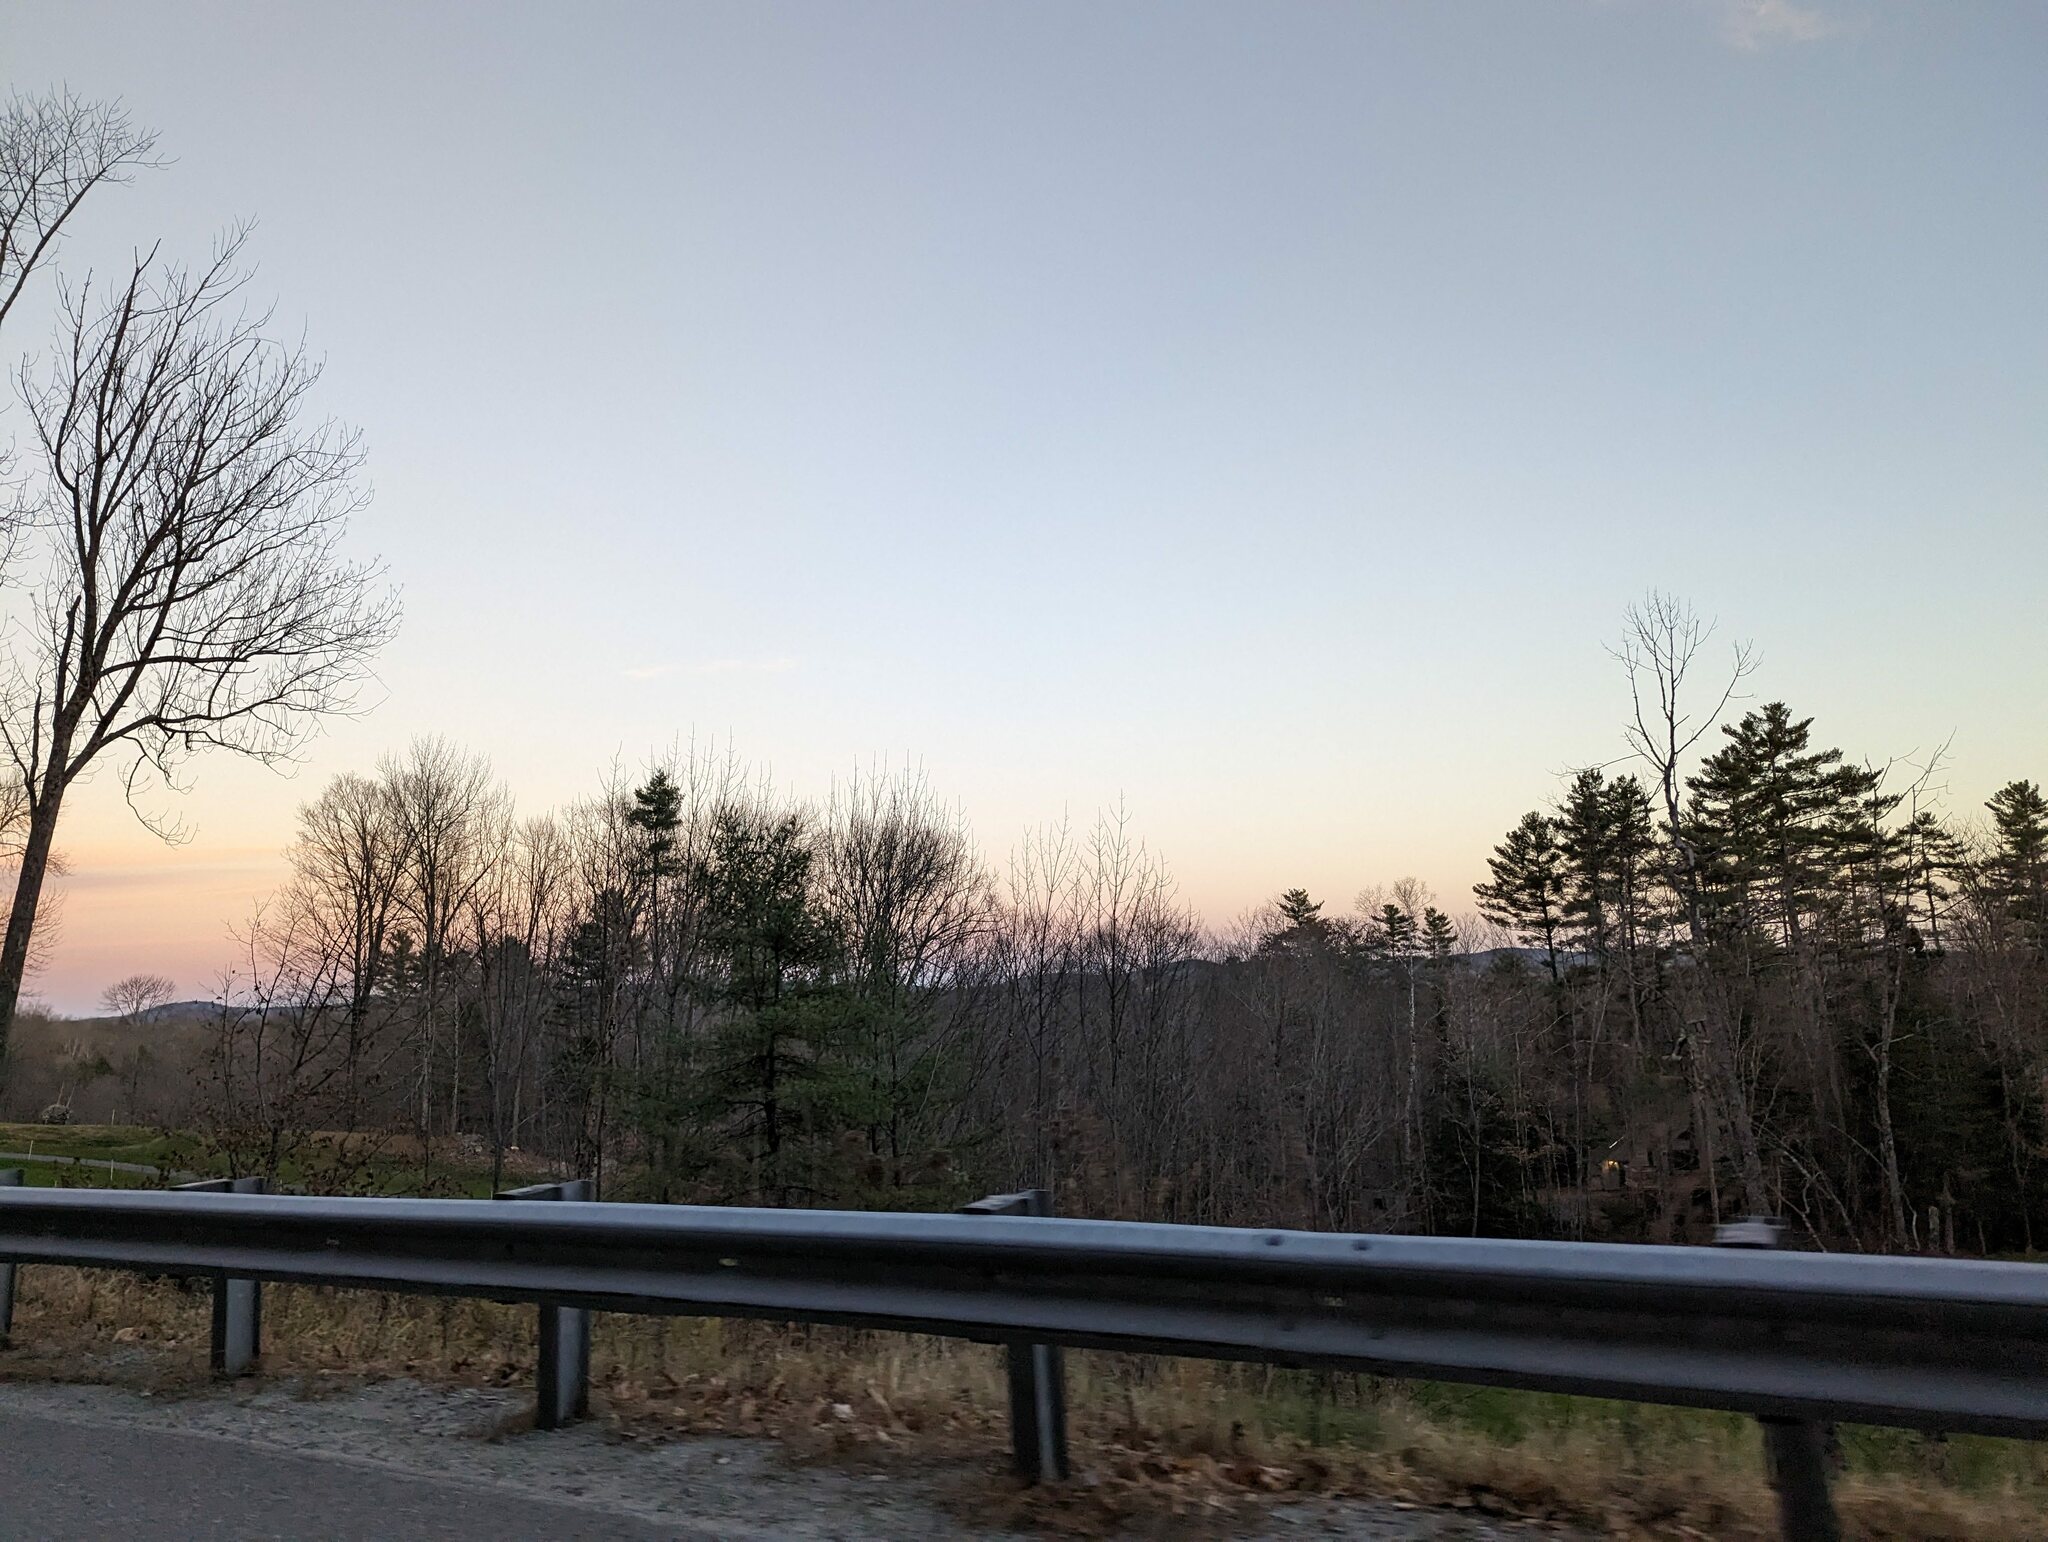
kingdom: Plantae
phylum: Tracheophyta
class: Pinopsida
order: Pinales
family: Pinaceae
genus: Pinus
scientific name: Pinus strobus
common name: Weymouth pine
